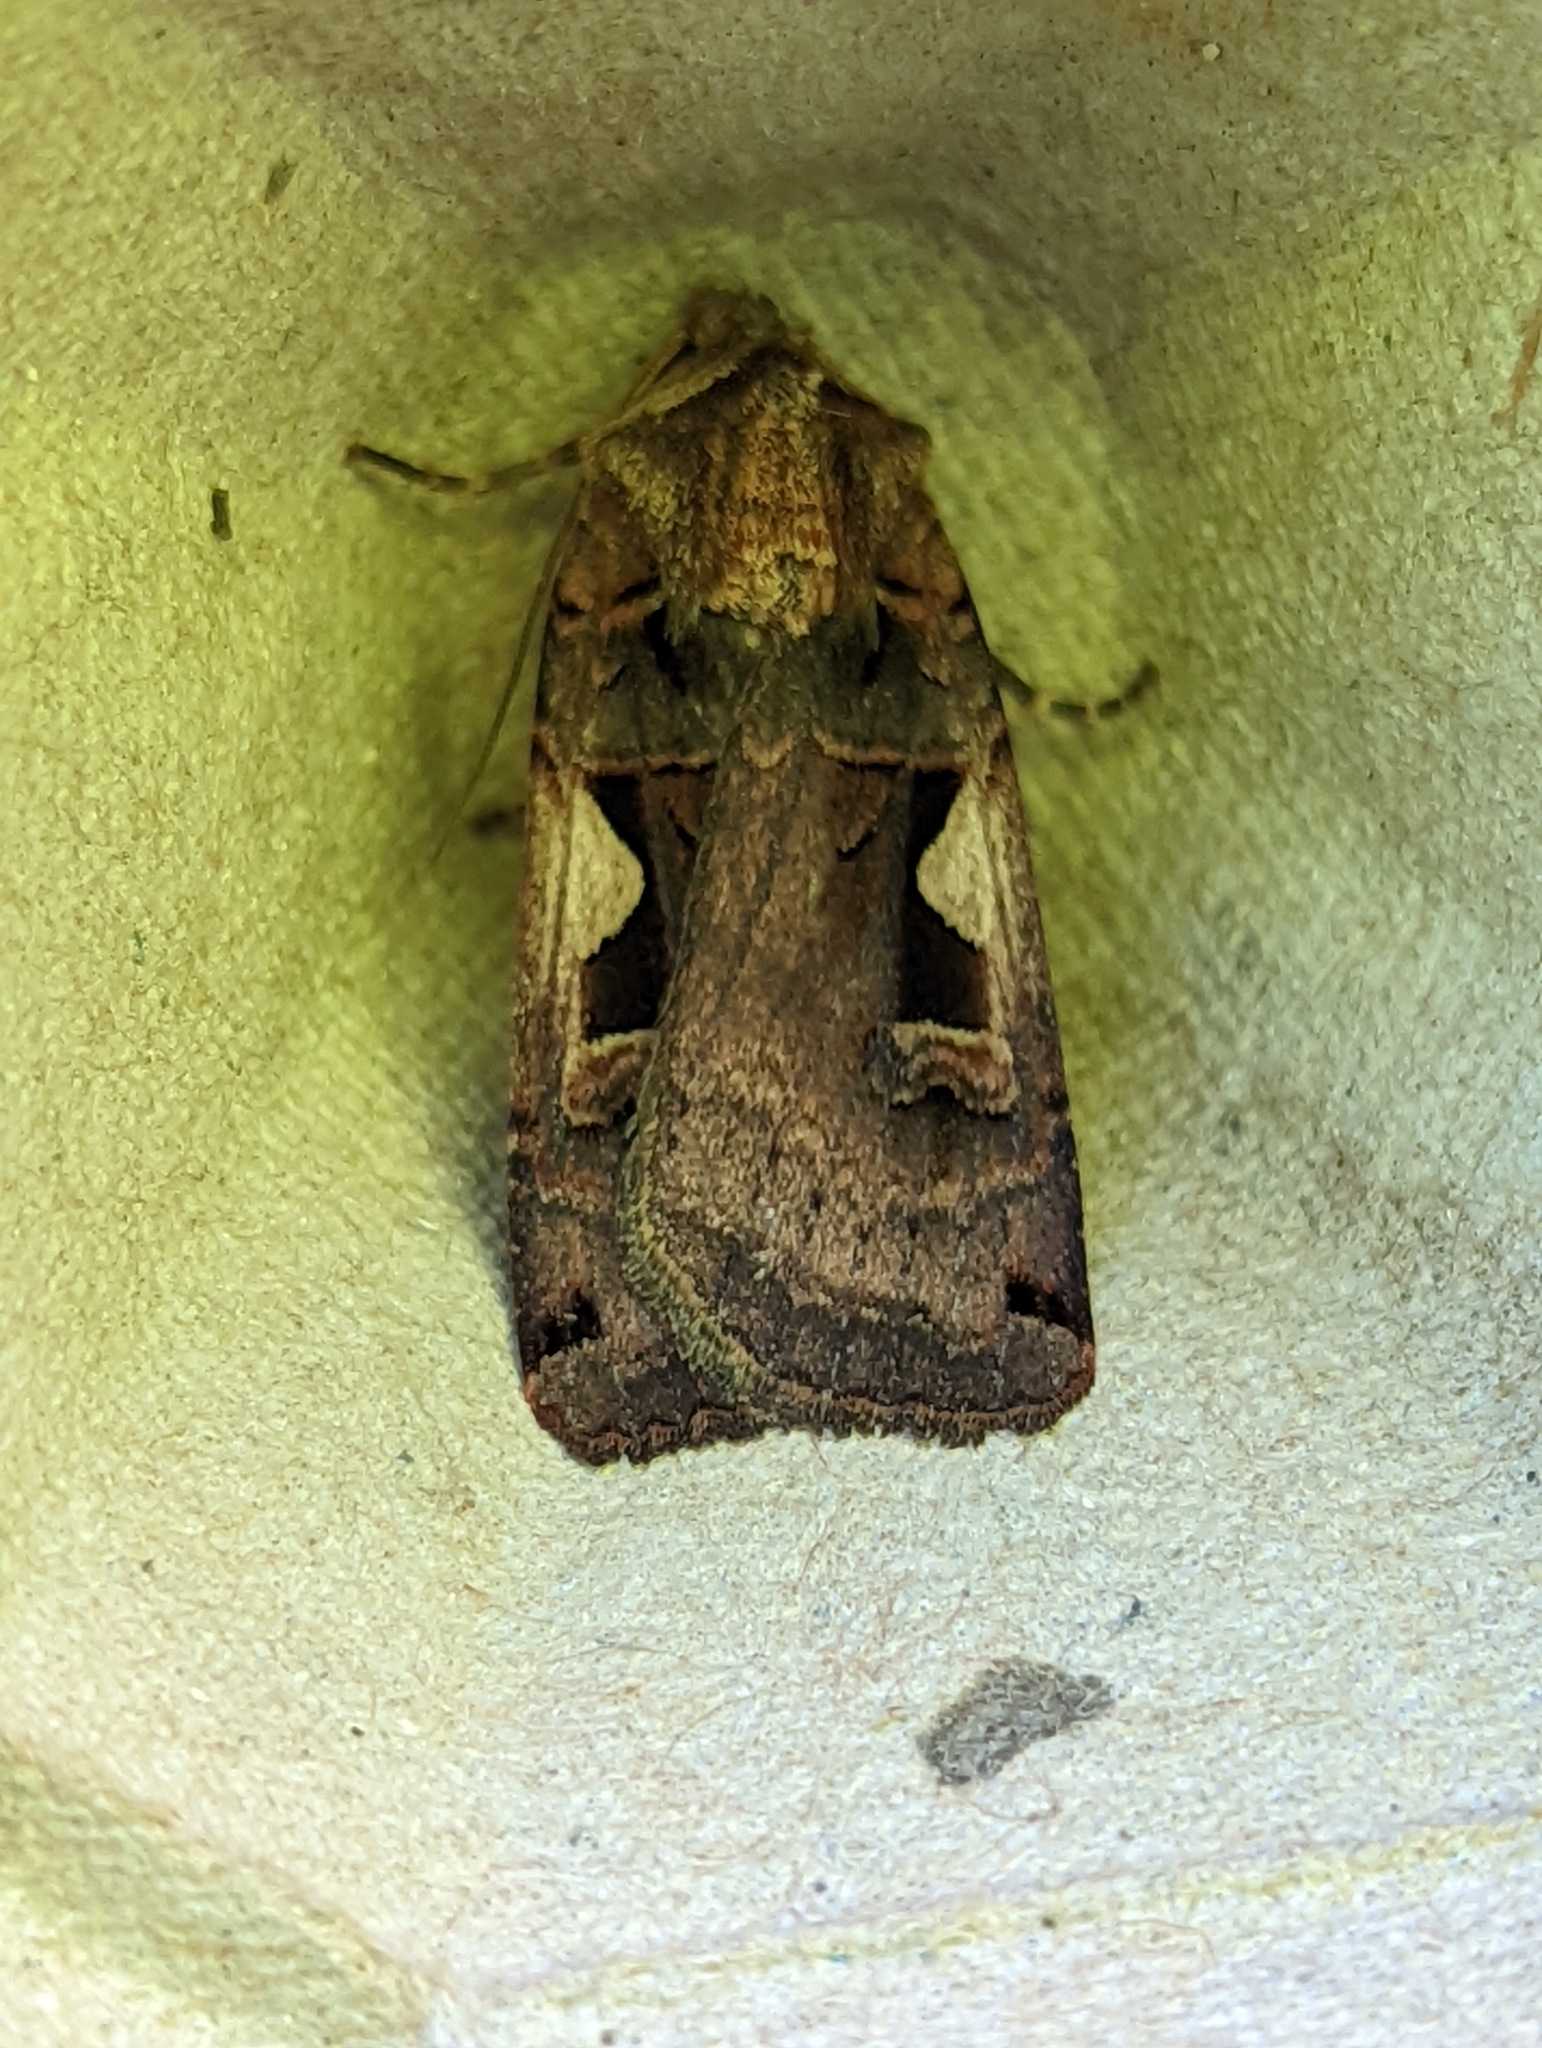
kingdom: Animalia
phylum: Arthropoda
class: Insecta
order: Lepidoptera
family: Noctuidae
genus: Xestia
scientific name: Xestia c-nigrum
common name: Setaceous hebrew character
